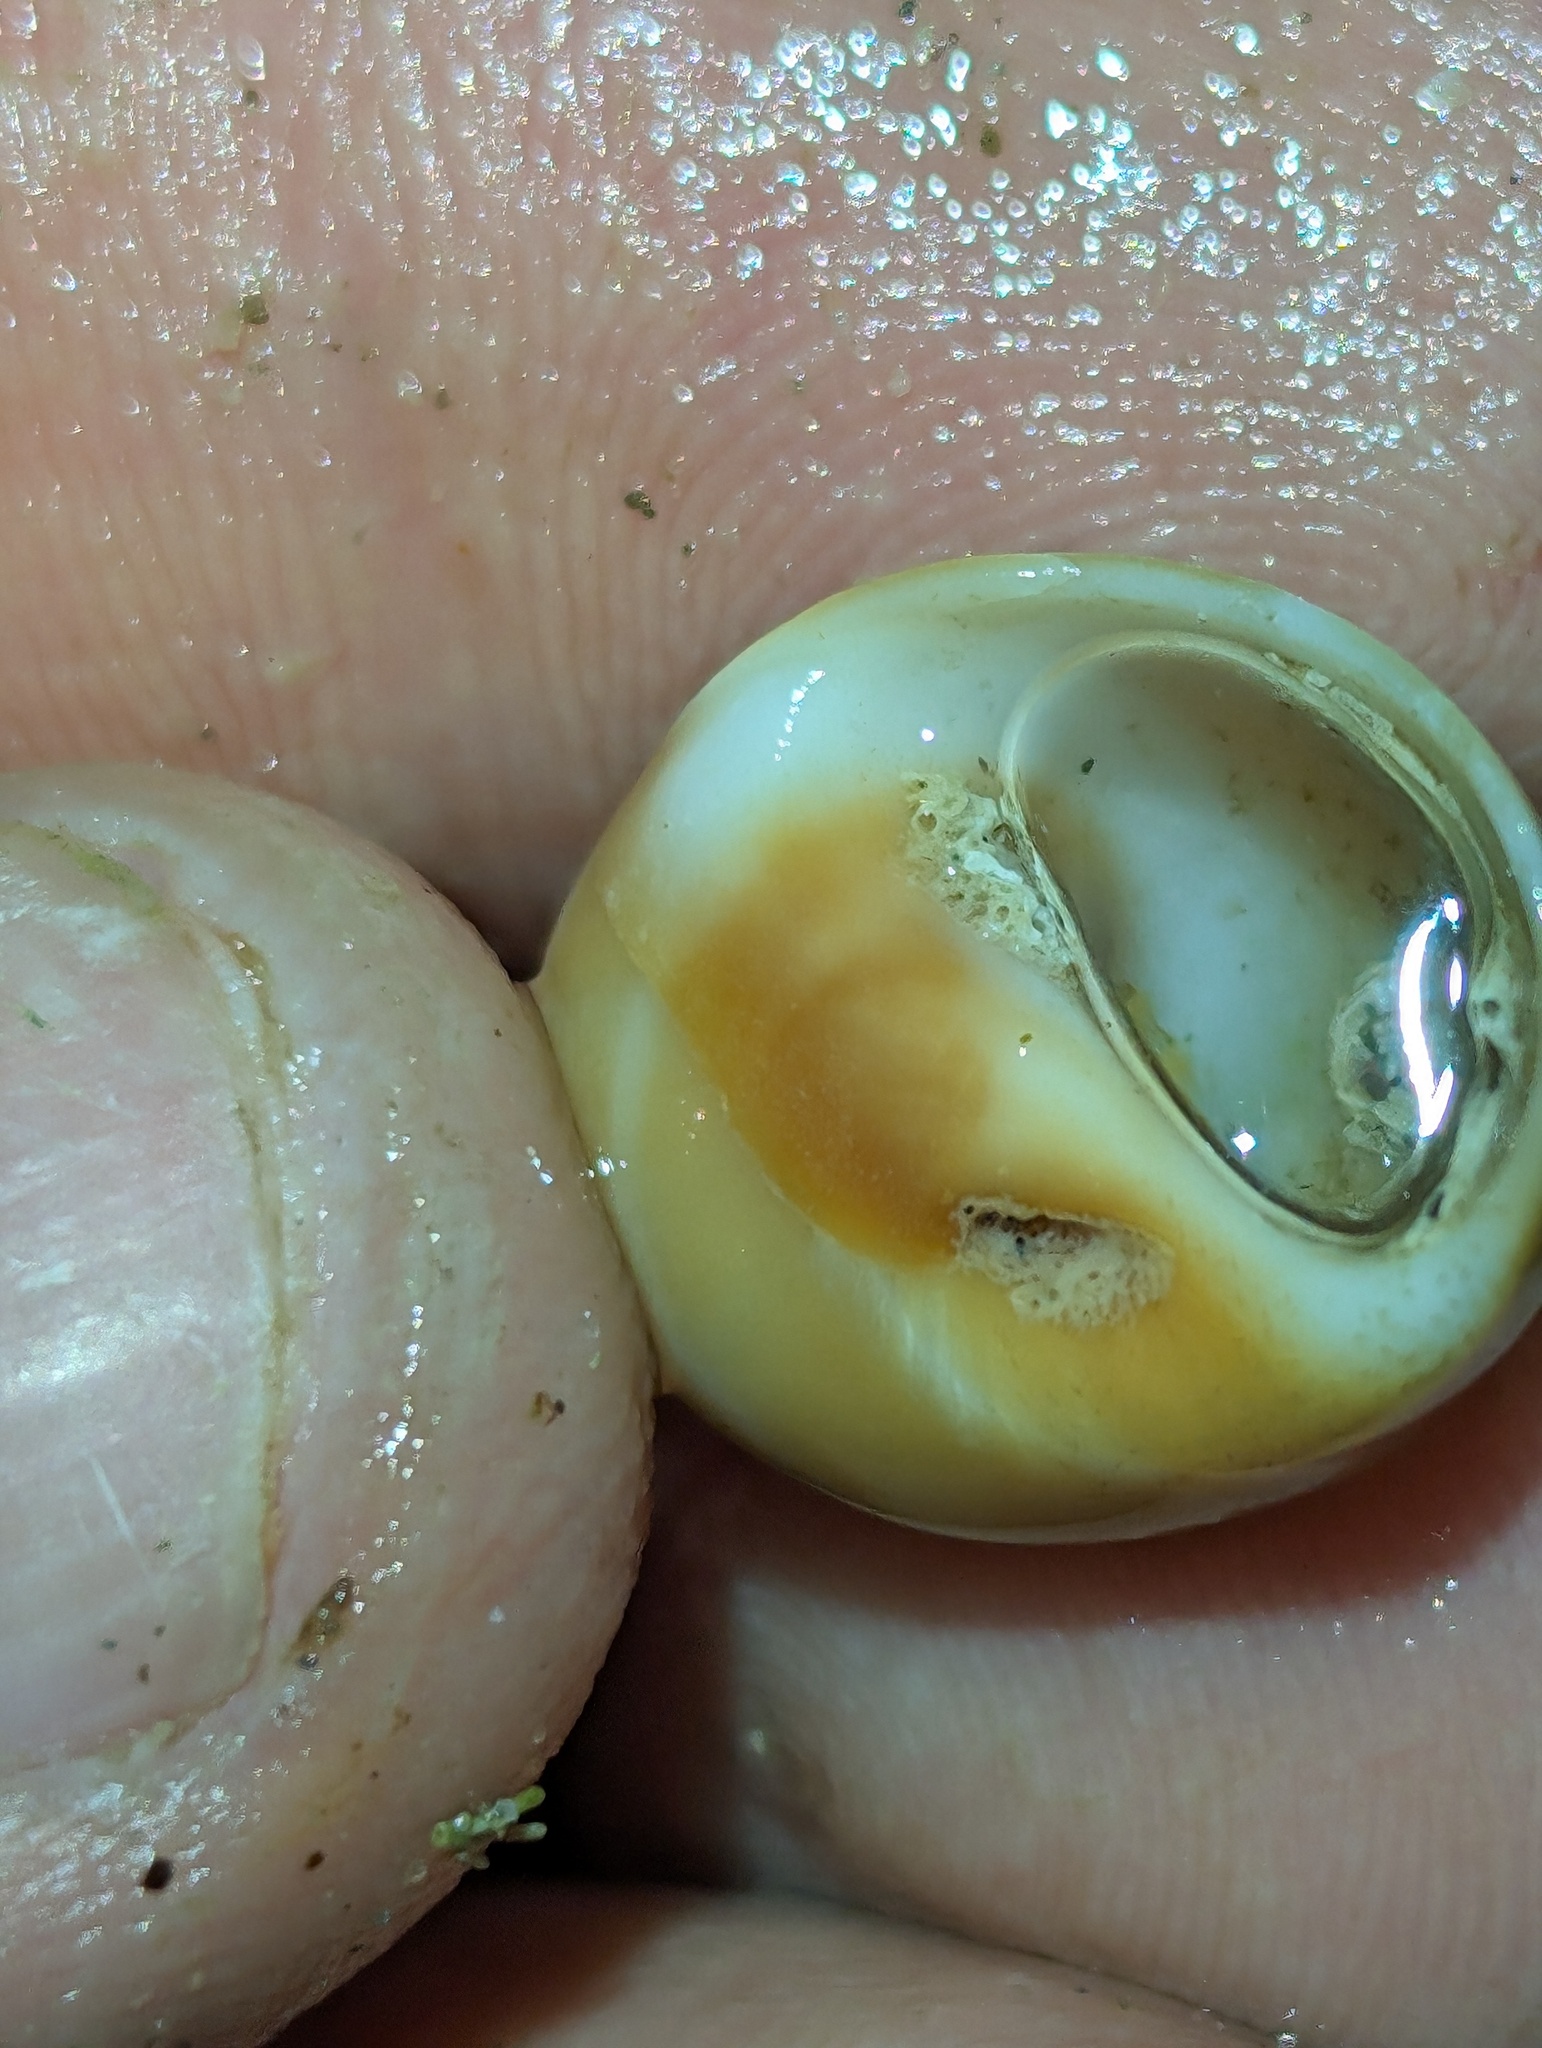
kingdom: Animalia
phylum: Mollusca
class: Gastropoda
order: Littorinimorpha
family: Naticidae
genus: Polinices
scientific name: Polinices bifasciatus
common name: Two-banded moonsnail
